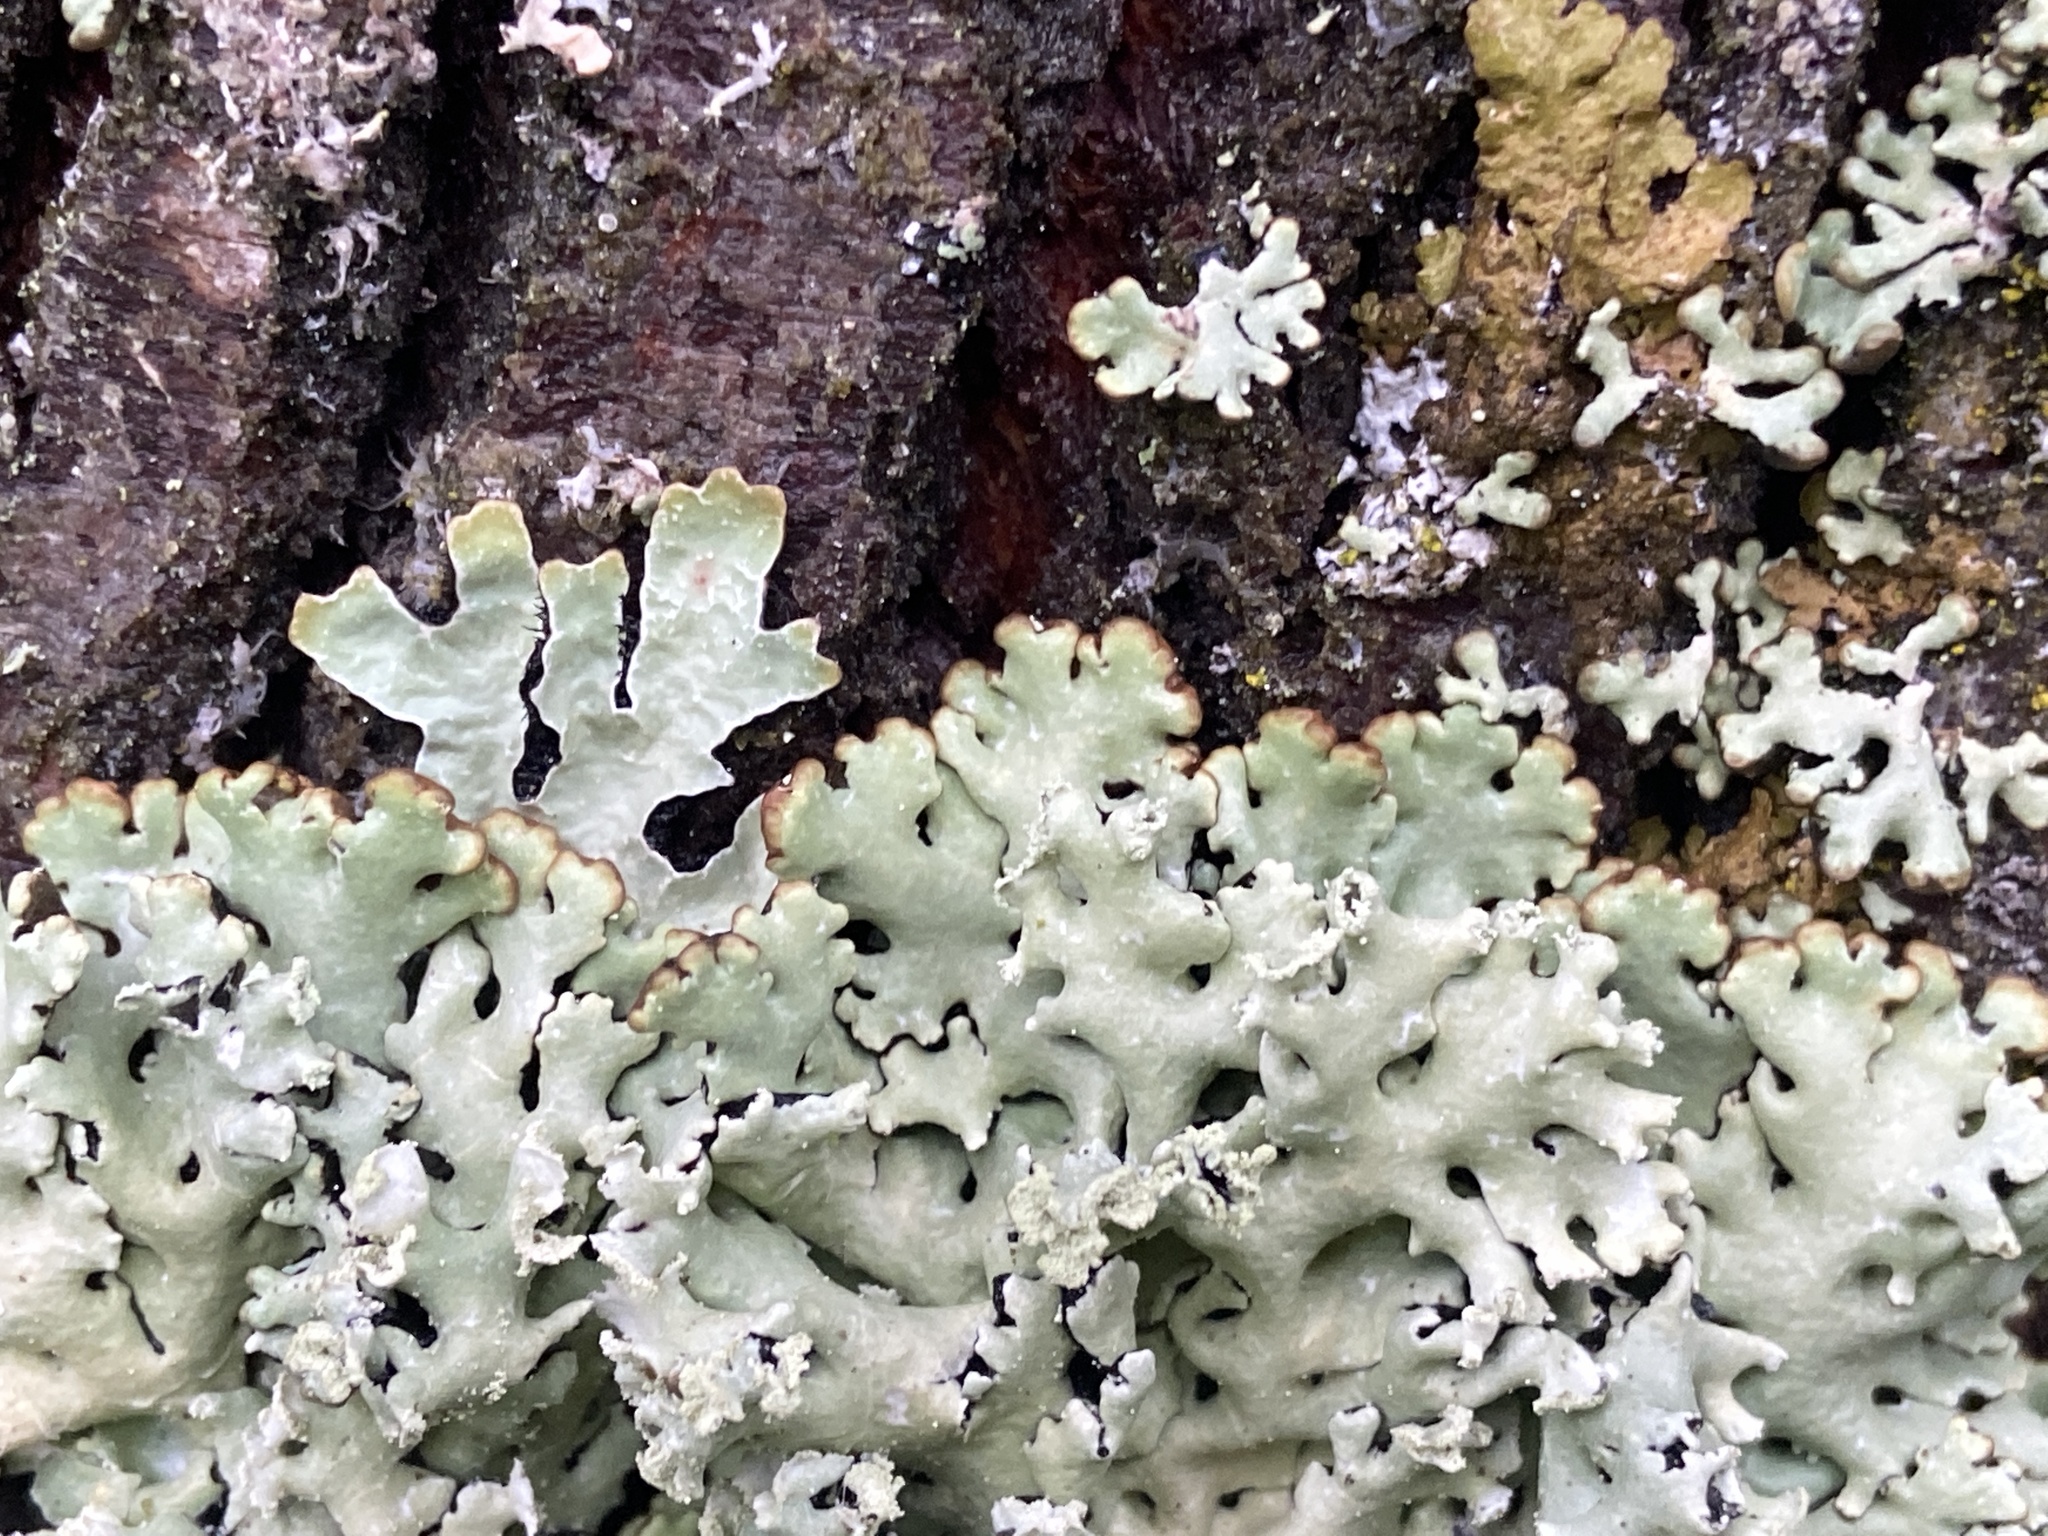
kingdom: Fungi
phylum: Ascomycota
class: Lecanoromycetes
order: Lecanorales
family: Parmeliaceae
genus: Hypogymnia
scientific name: Hypogymnia physodes
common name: Dark crottle
